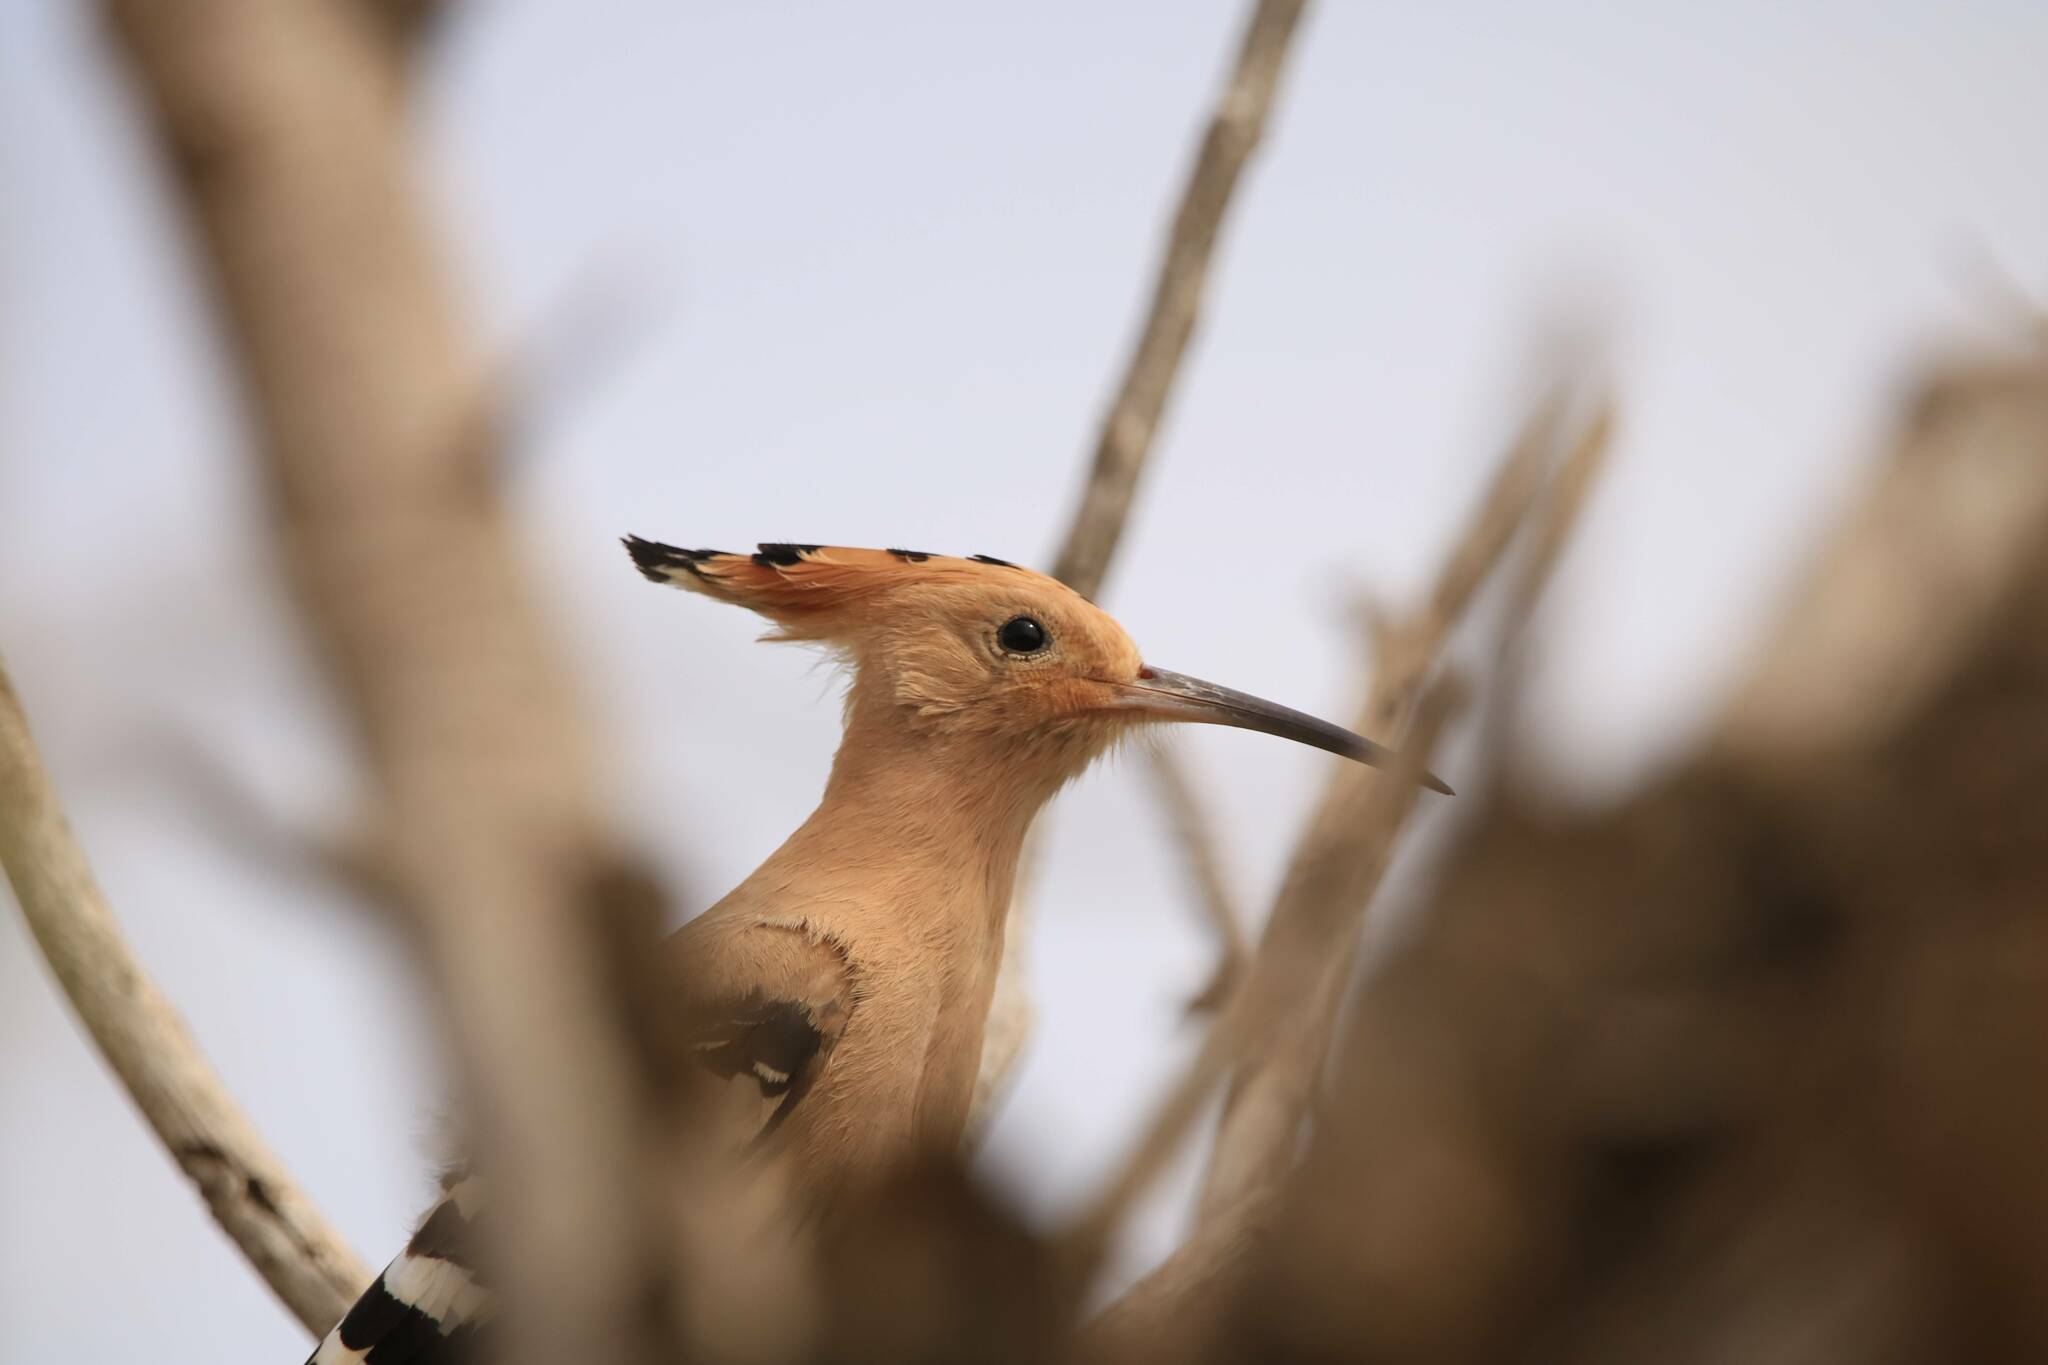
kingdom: Animalia
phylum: Chordata
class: Aves
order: Bucerotiformes
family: Upupidae
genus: Upupa
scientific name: Upupa epops
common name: Eurasian hoopoe
